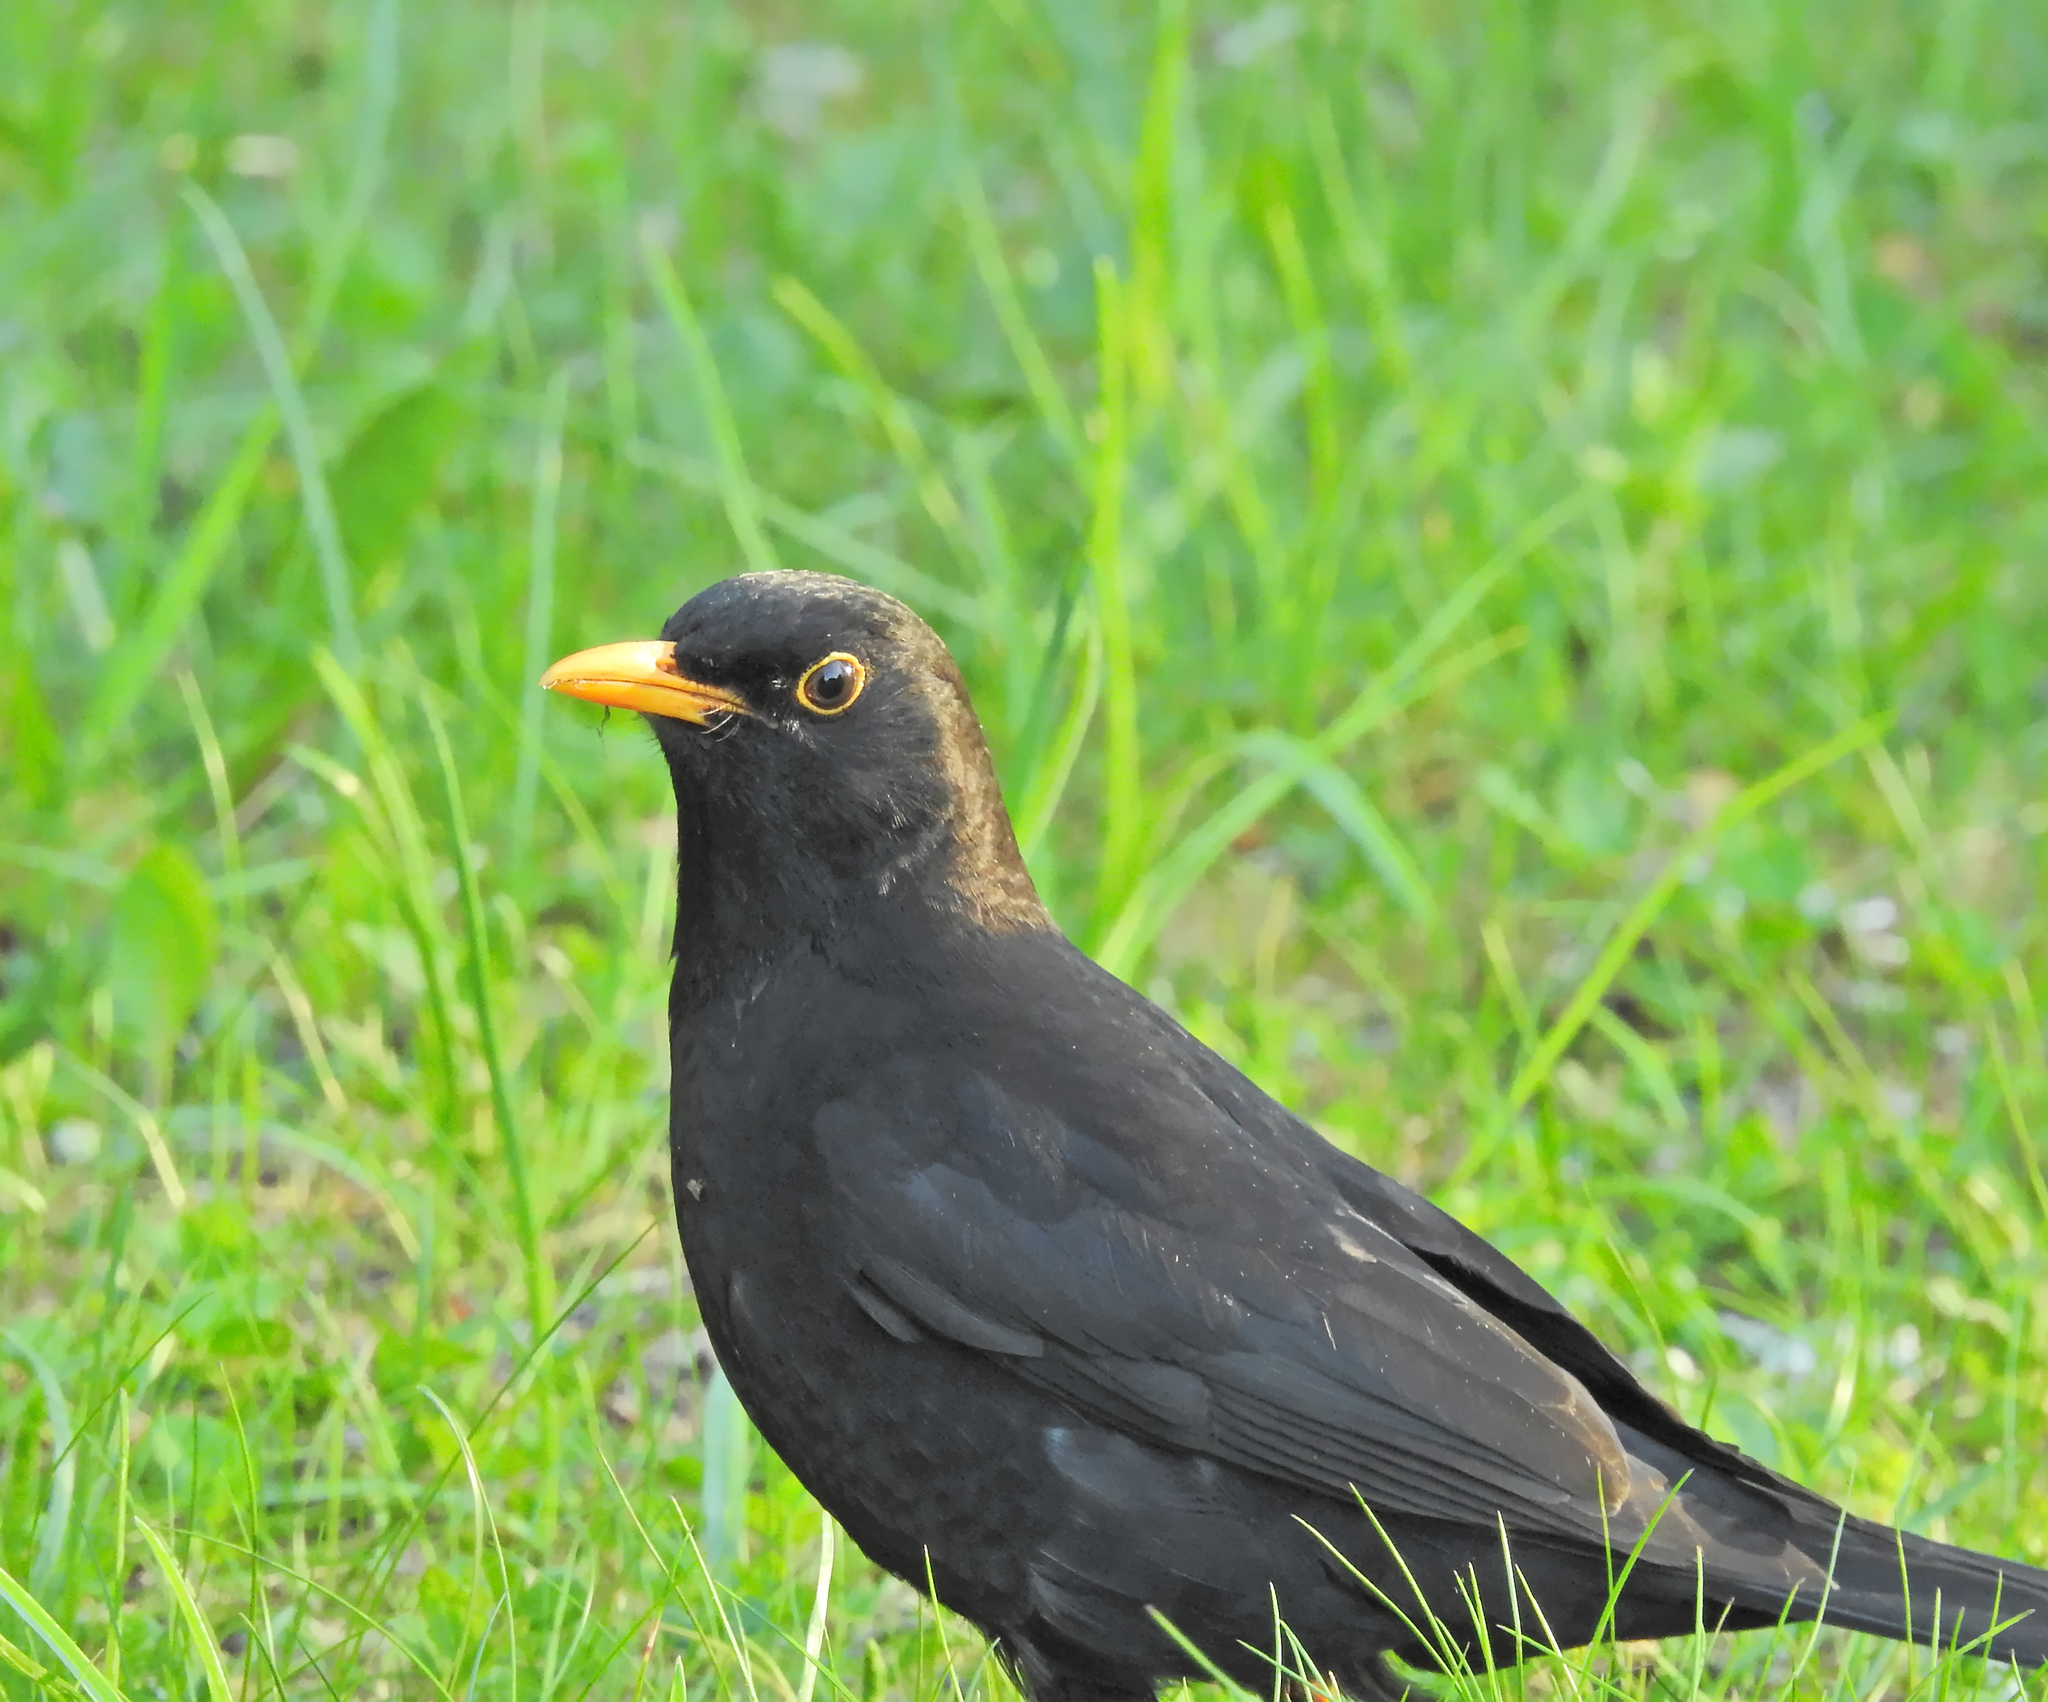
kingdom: Animalia
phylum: Chordata
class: Aves
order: Passeriformes
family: Turdidae
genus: Turdus
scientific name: Turdus merula
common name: Common blackbird
